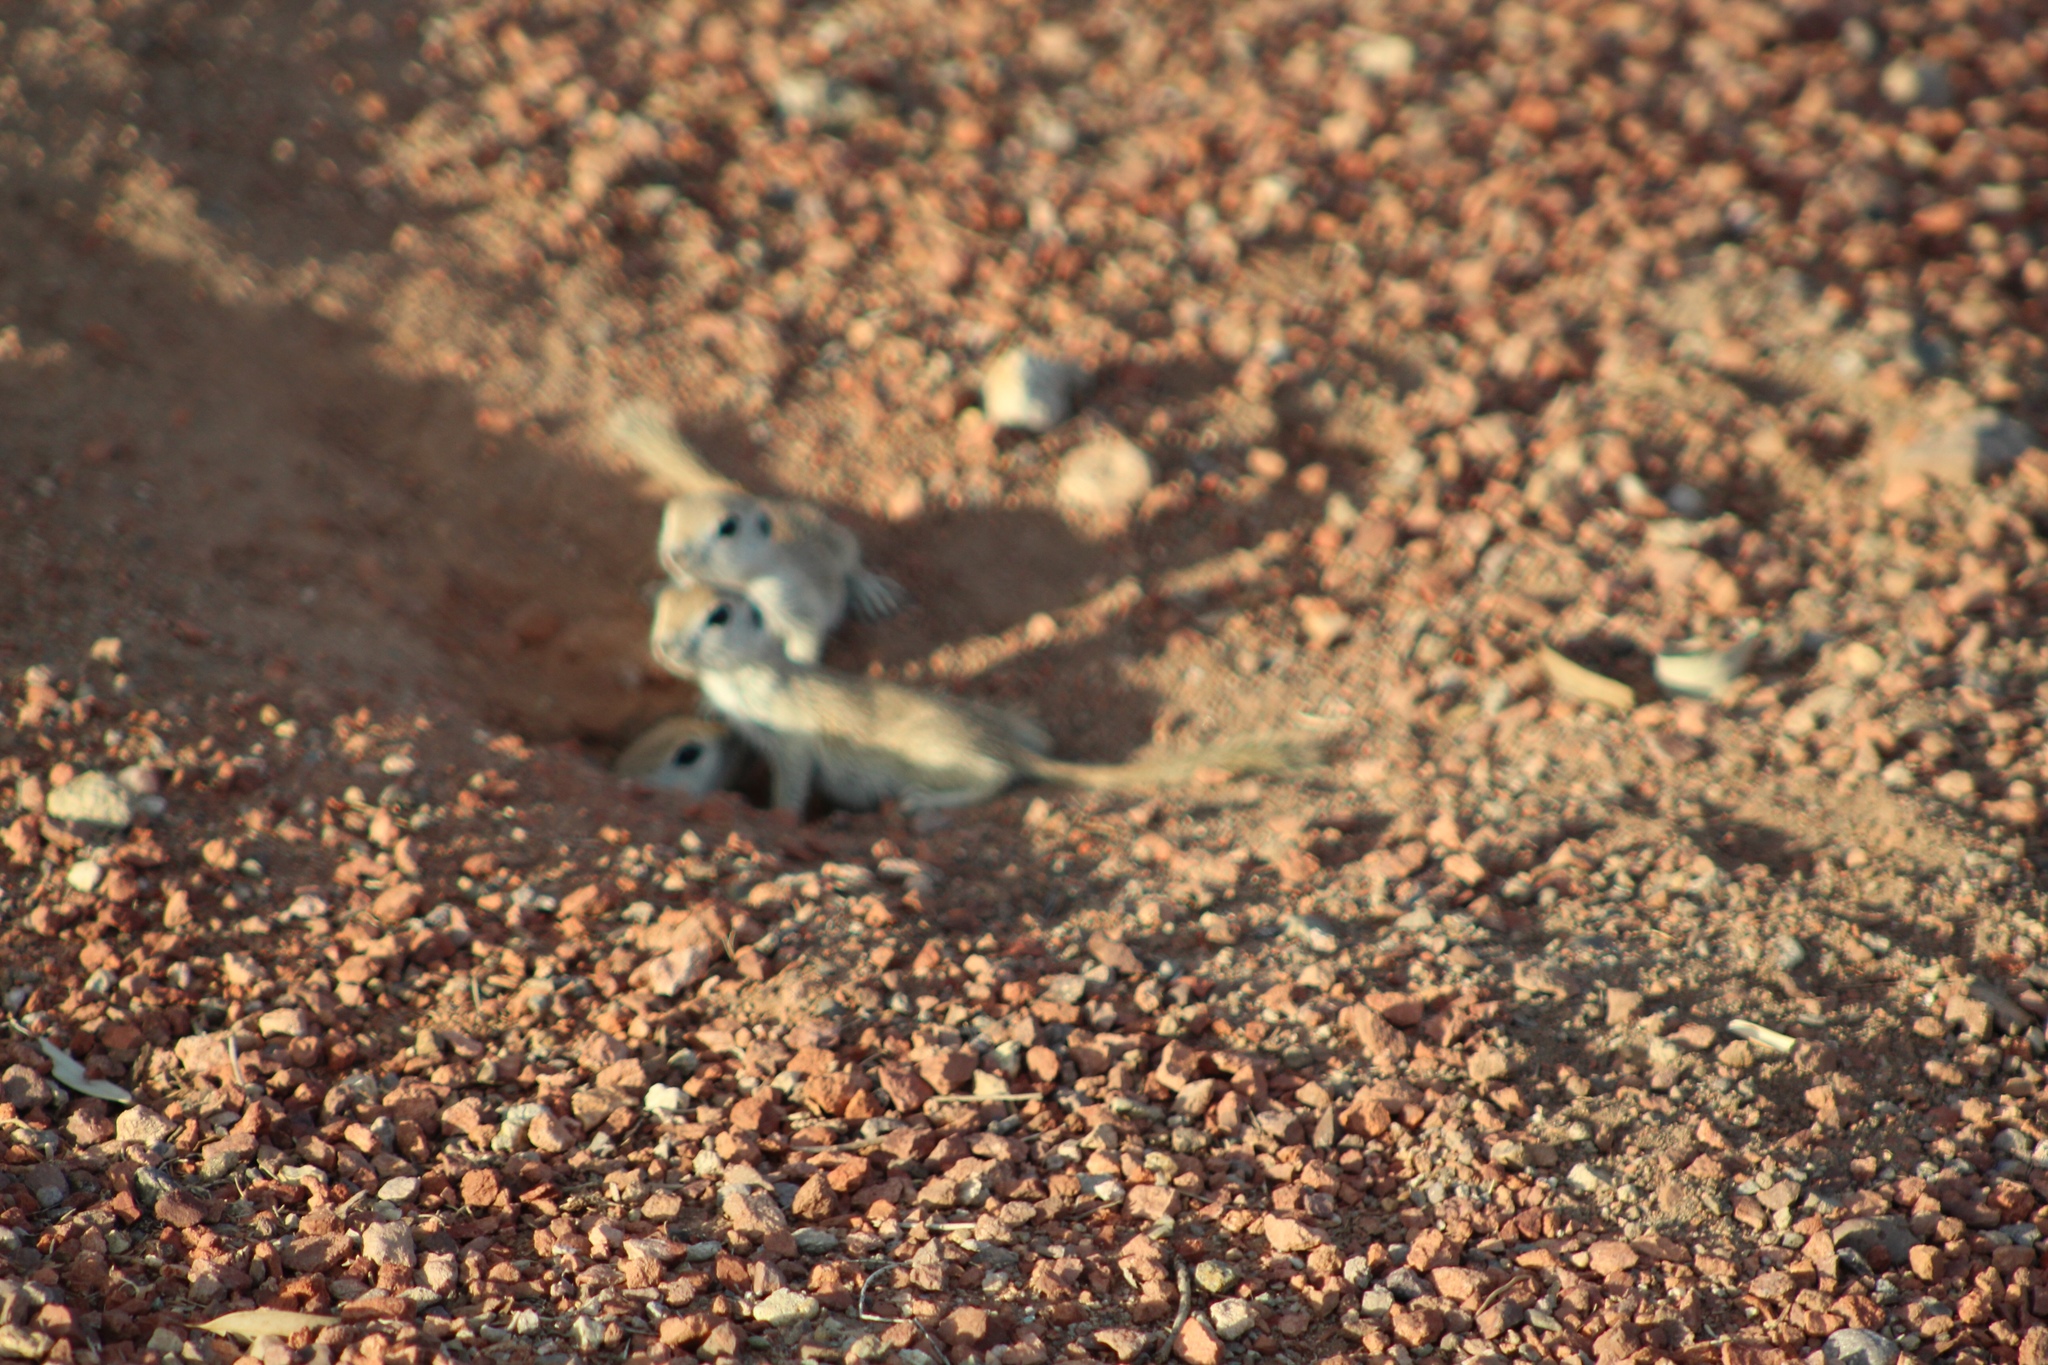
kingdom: Animalia
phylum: Chordata
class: Mammalia
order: Rodentia
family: Sciuridae
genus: Xerospermophilus
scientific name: Xerospermophilus tereticaudus
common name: Round-tailed ground squirrel
